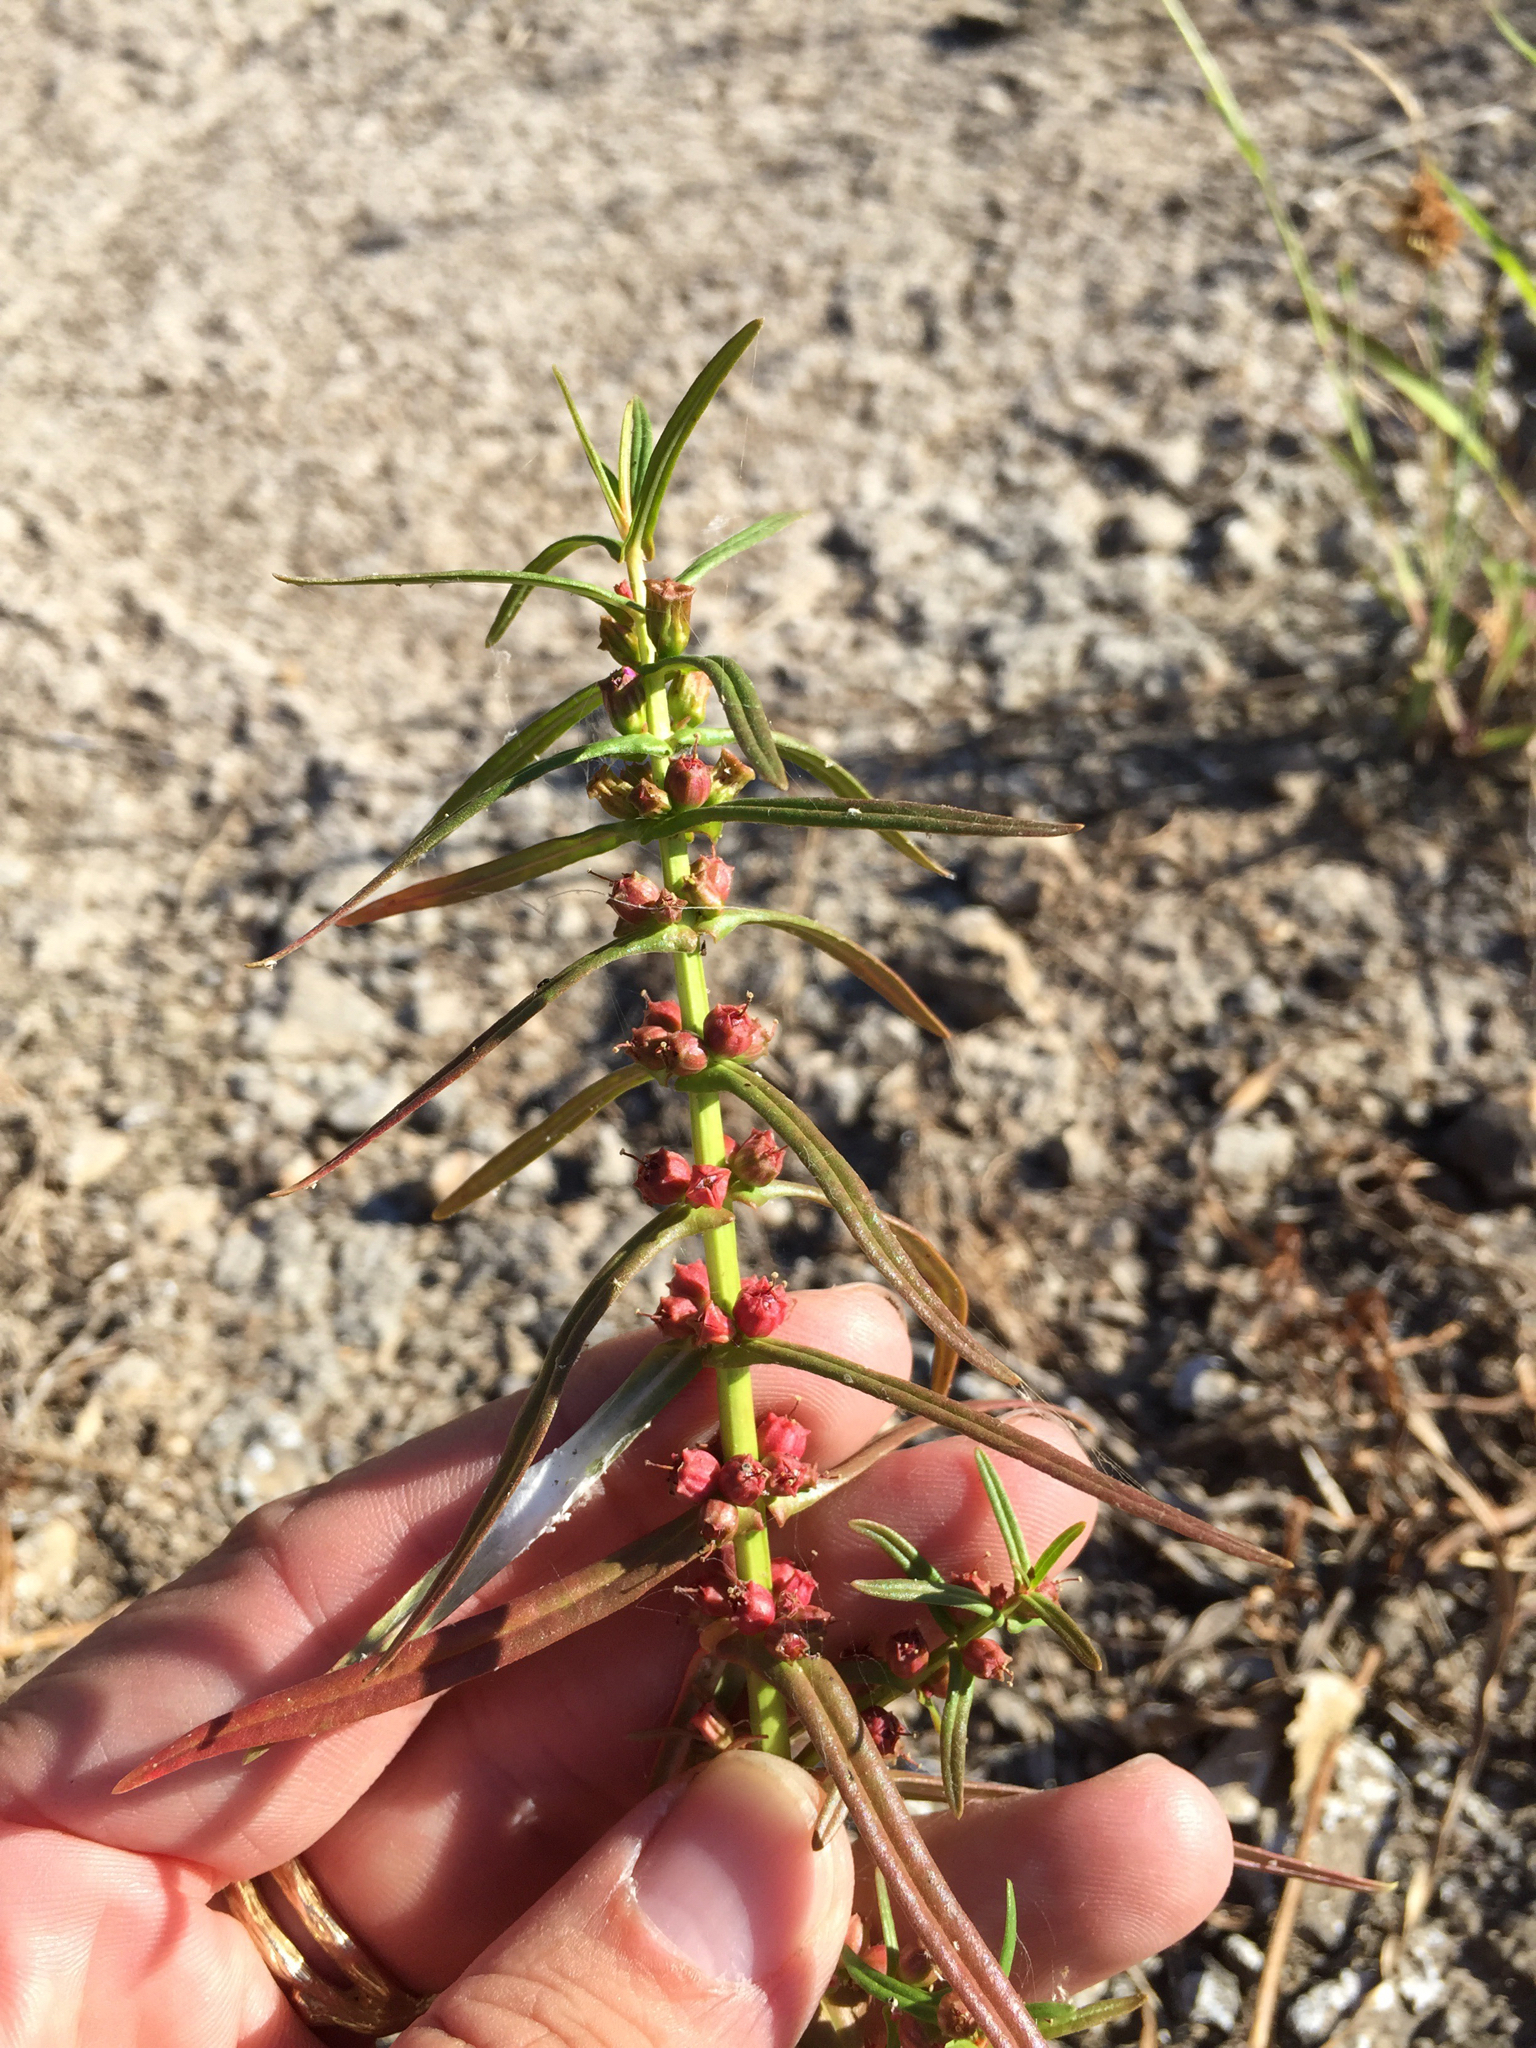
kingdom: Plantae
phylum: Tracheophyta
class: Magnoliopsida
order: Myrtales
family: Lythraceae
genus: Ammannia
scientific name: Ammannia coccinea
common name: Valley redstem
